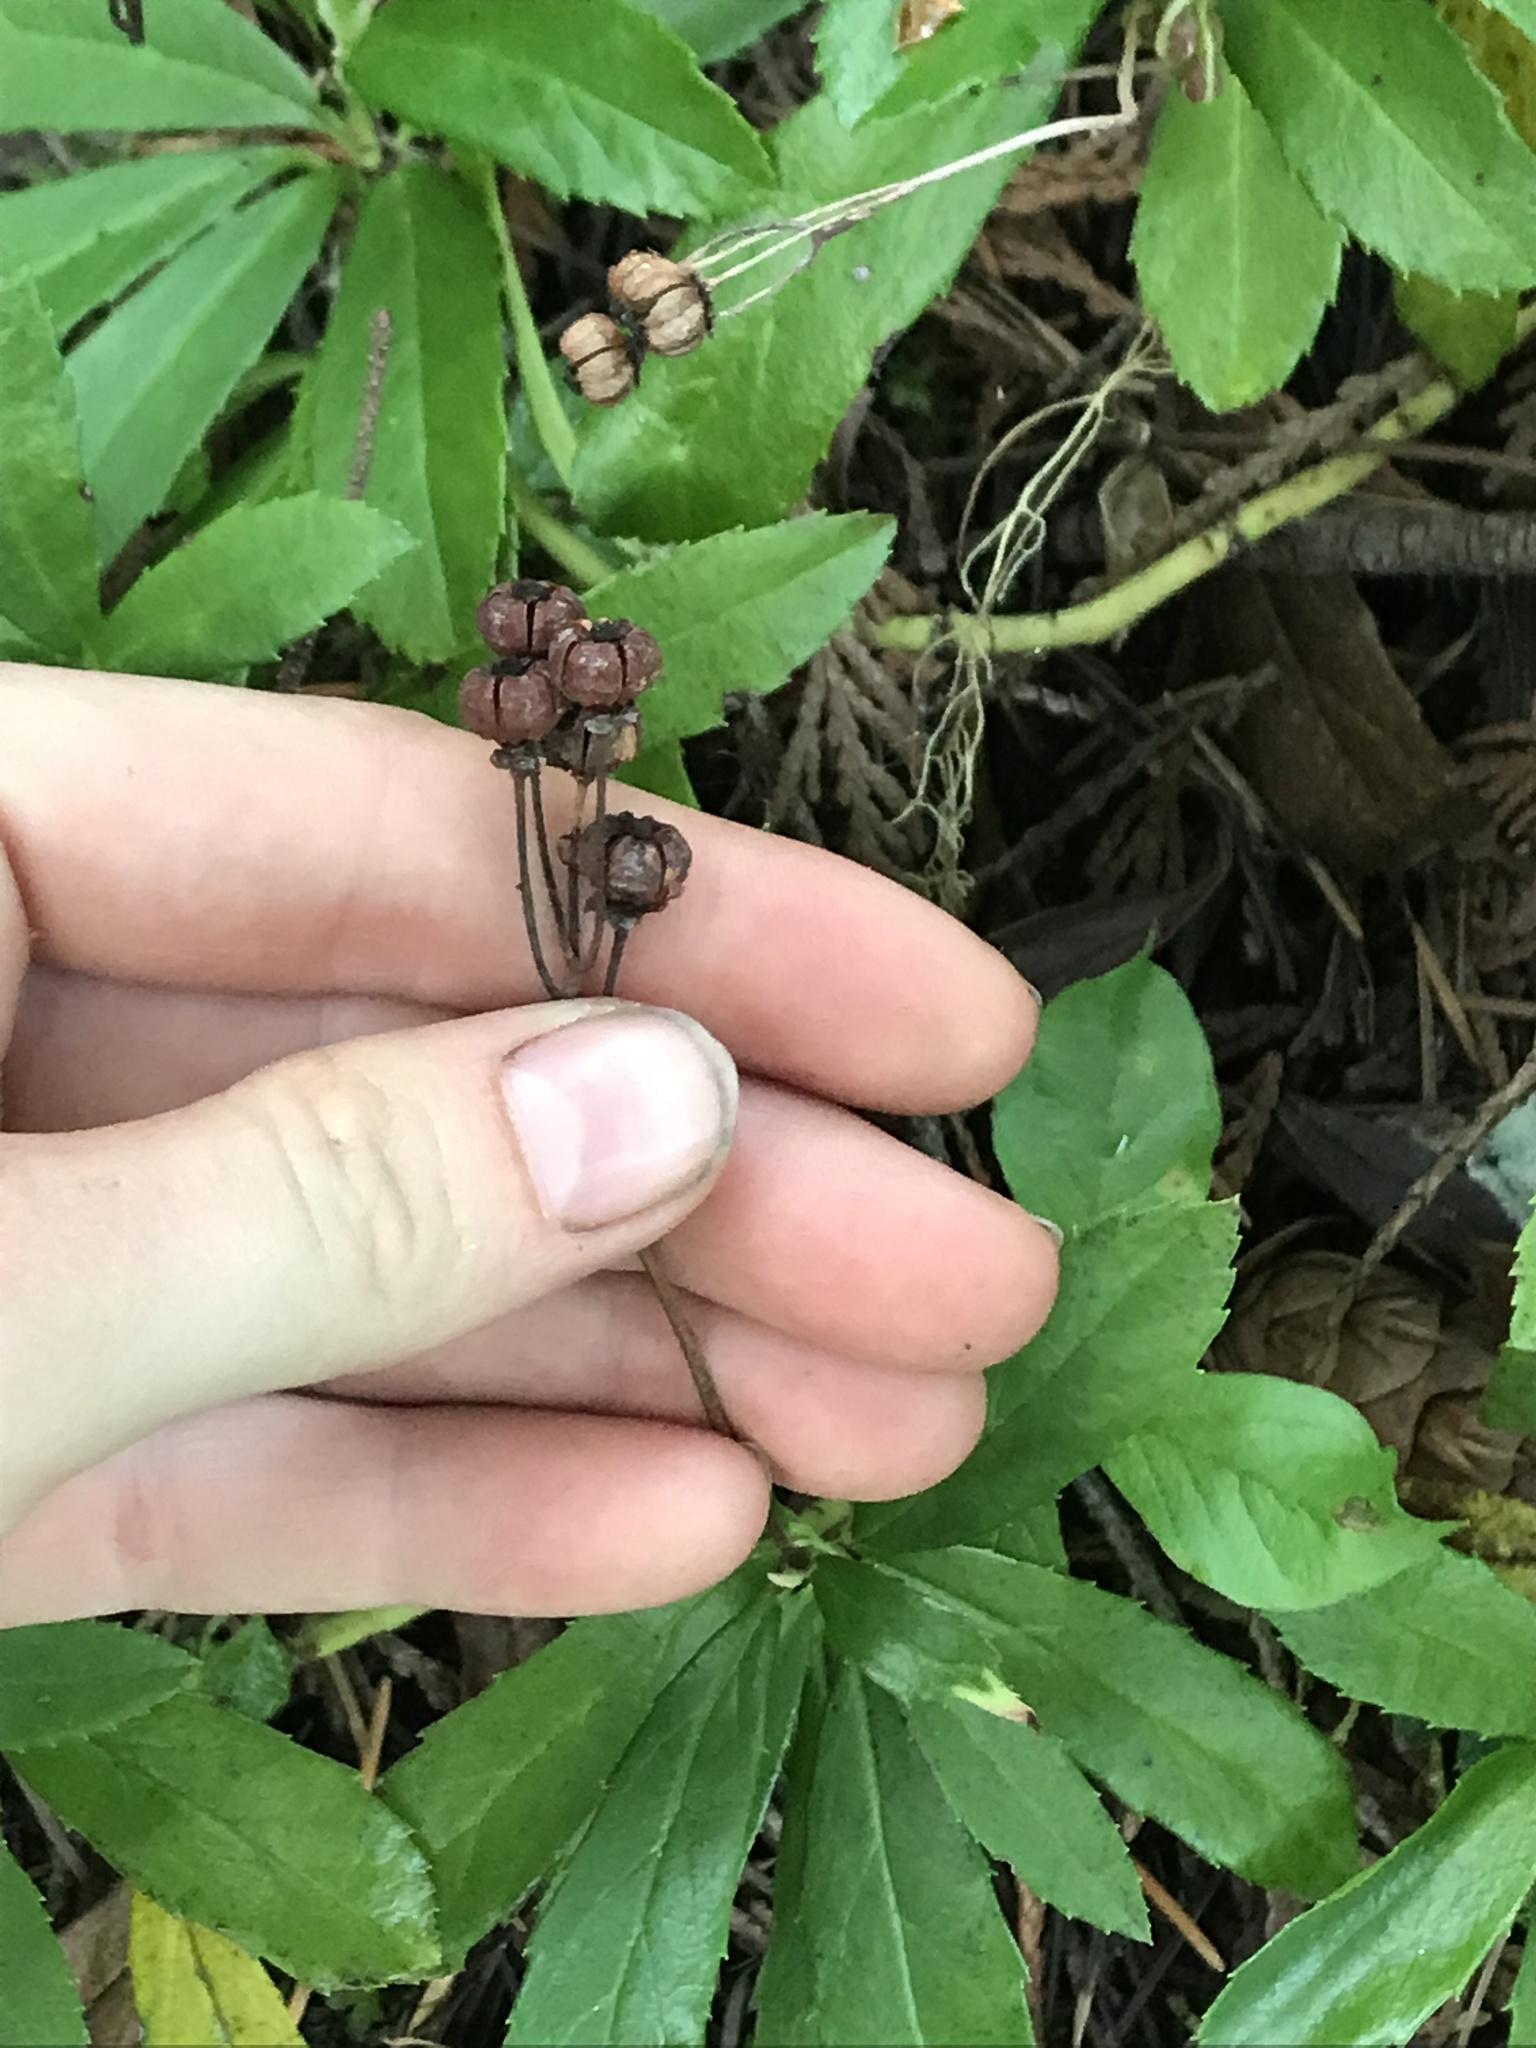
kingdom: Plantae
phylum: Tracheophyta
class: Magnoliopsida
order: Ericales
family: Ericaceae
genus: Chimaphila
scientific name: Chimaphila umbellata
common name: Pipsissewa
